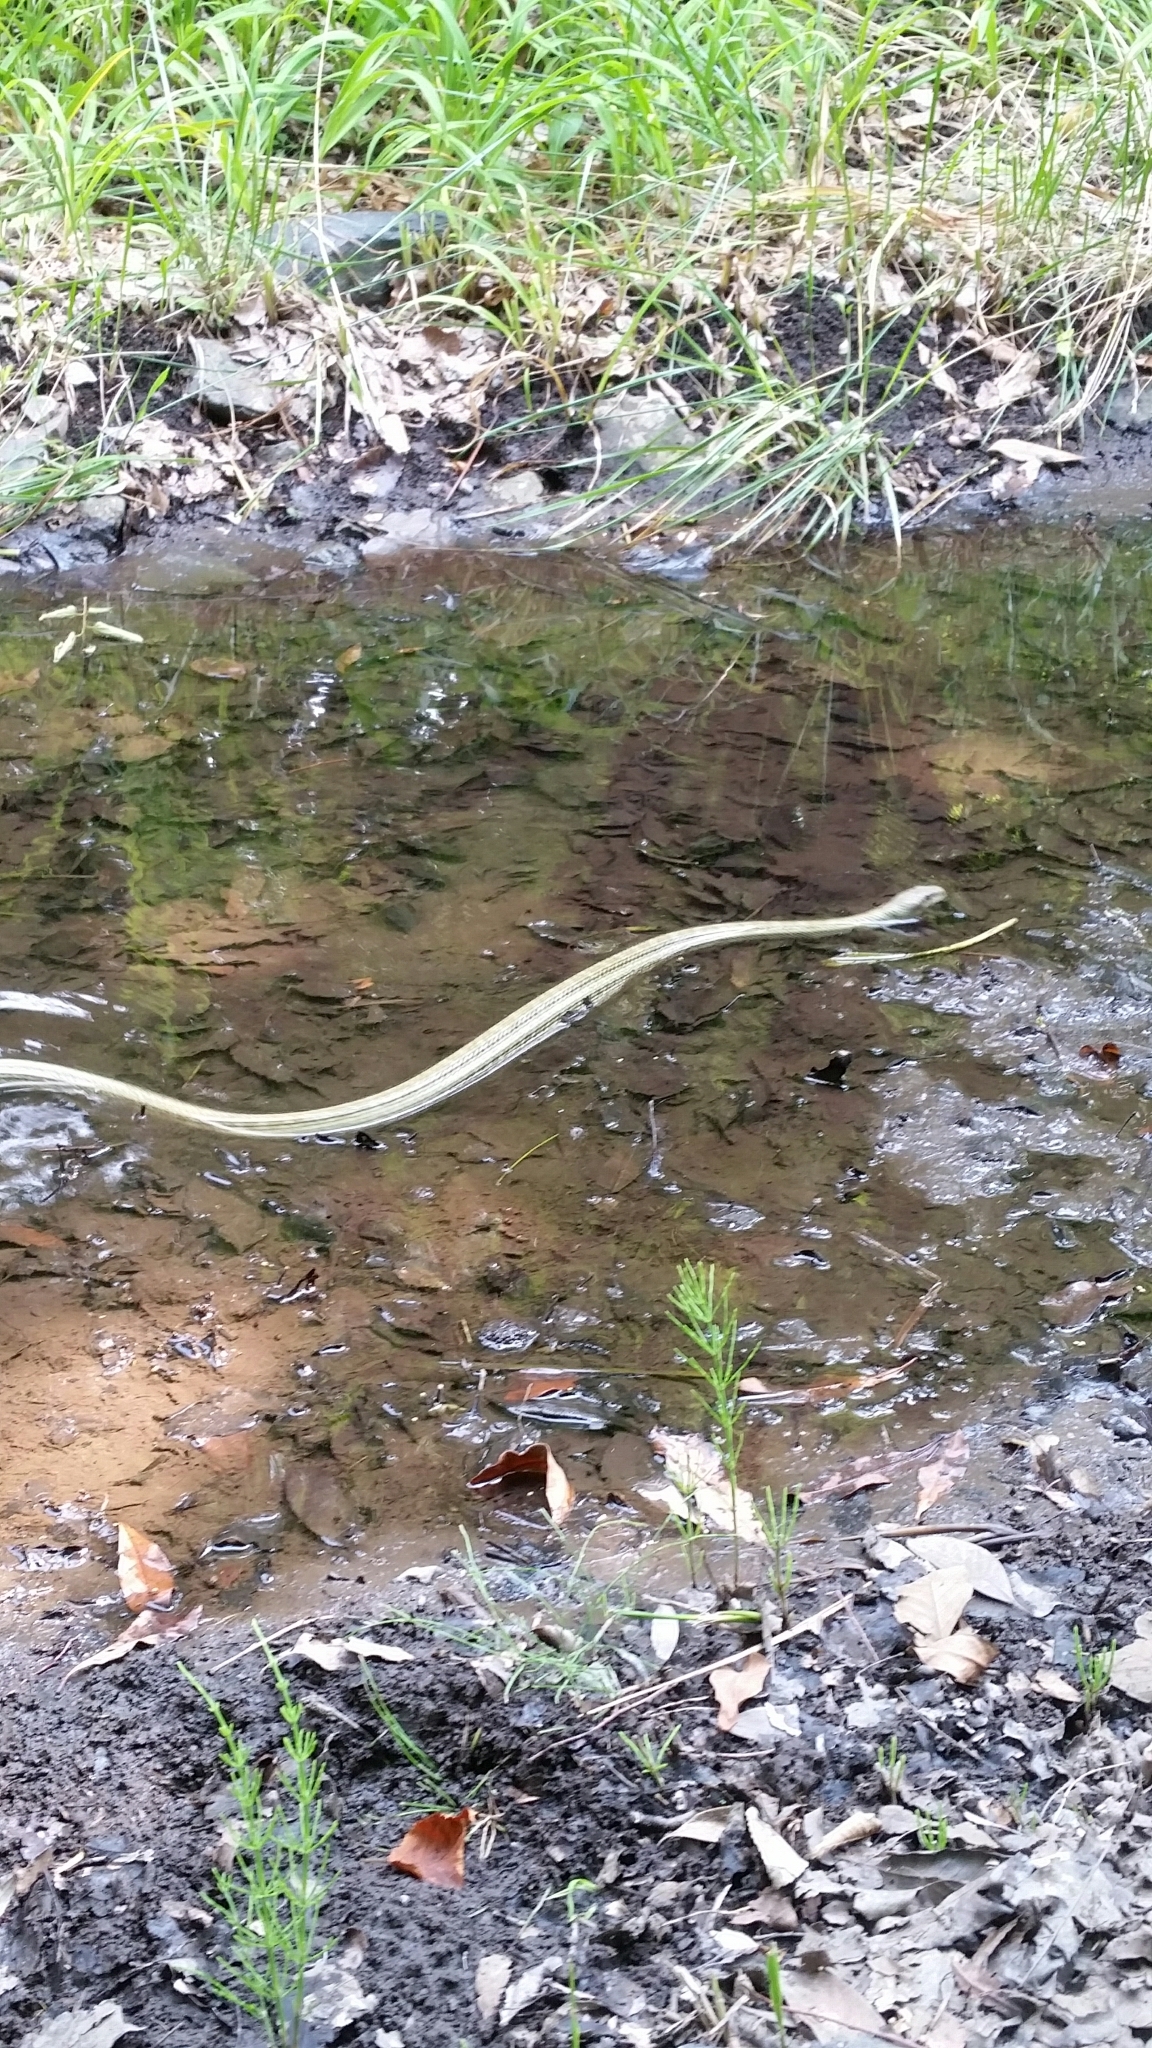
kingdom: Animalia
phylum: Chordata
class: Squamata
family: Colubridae
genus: Elaphe
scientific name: Elaphe climacophora
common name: Japanese ratsnake
